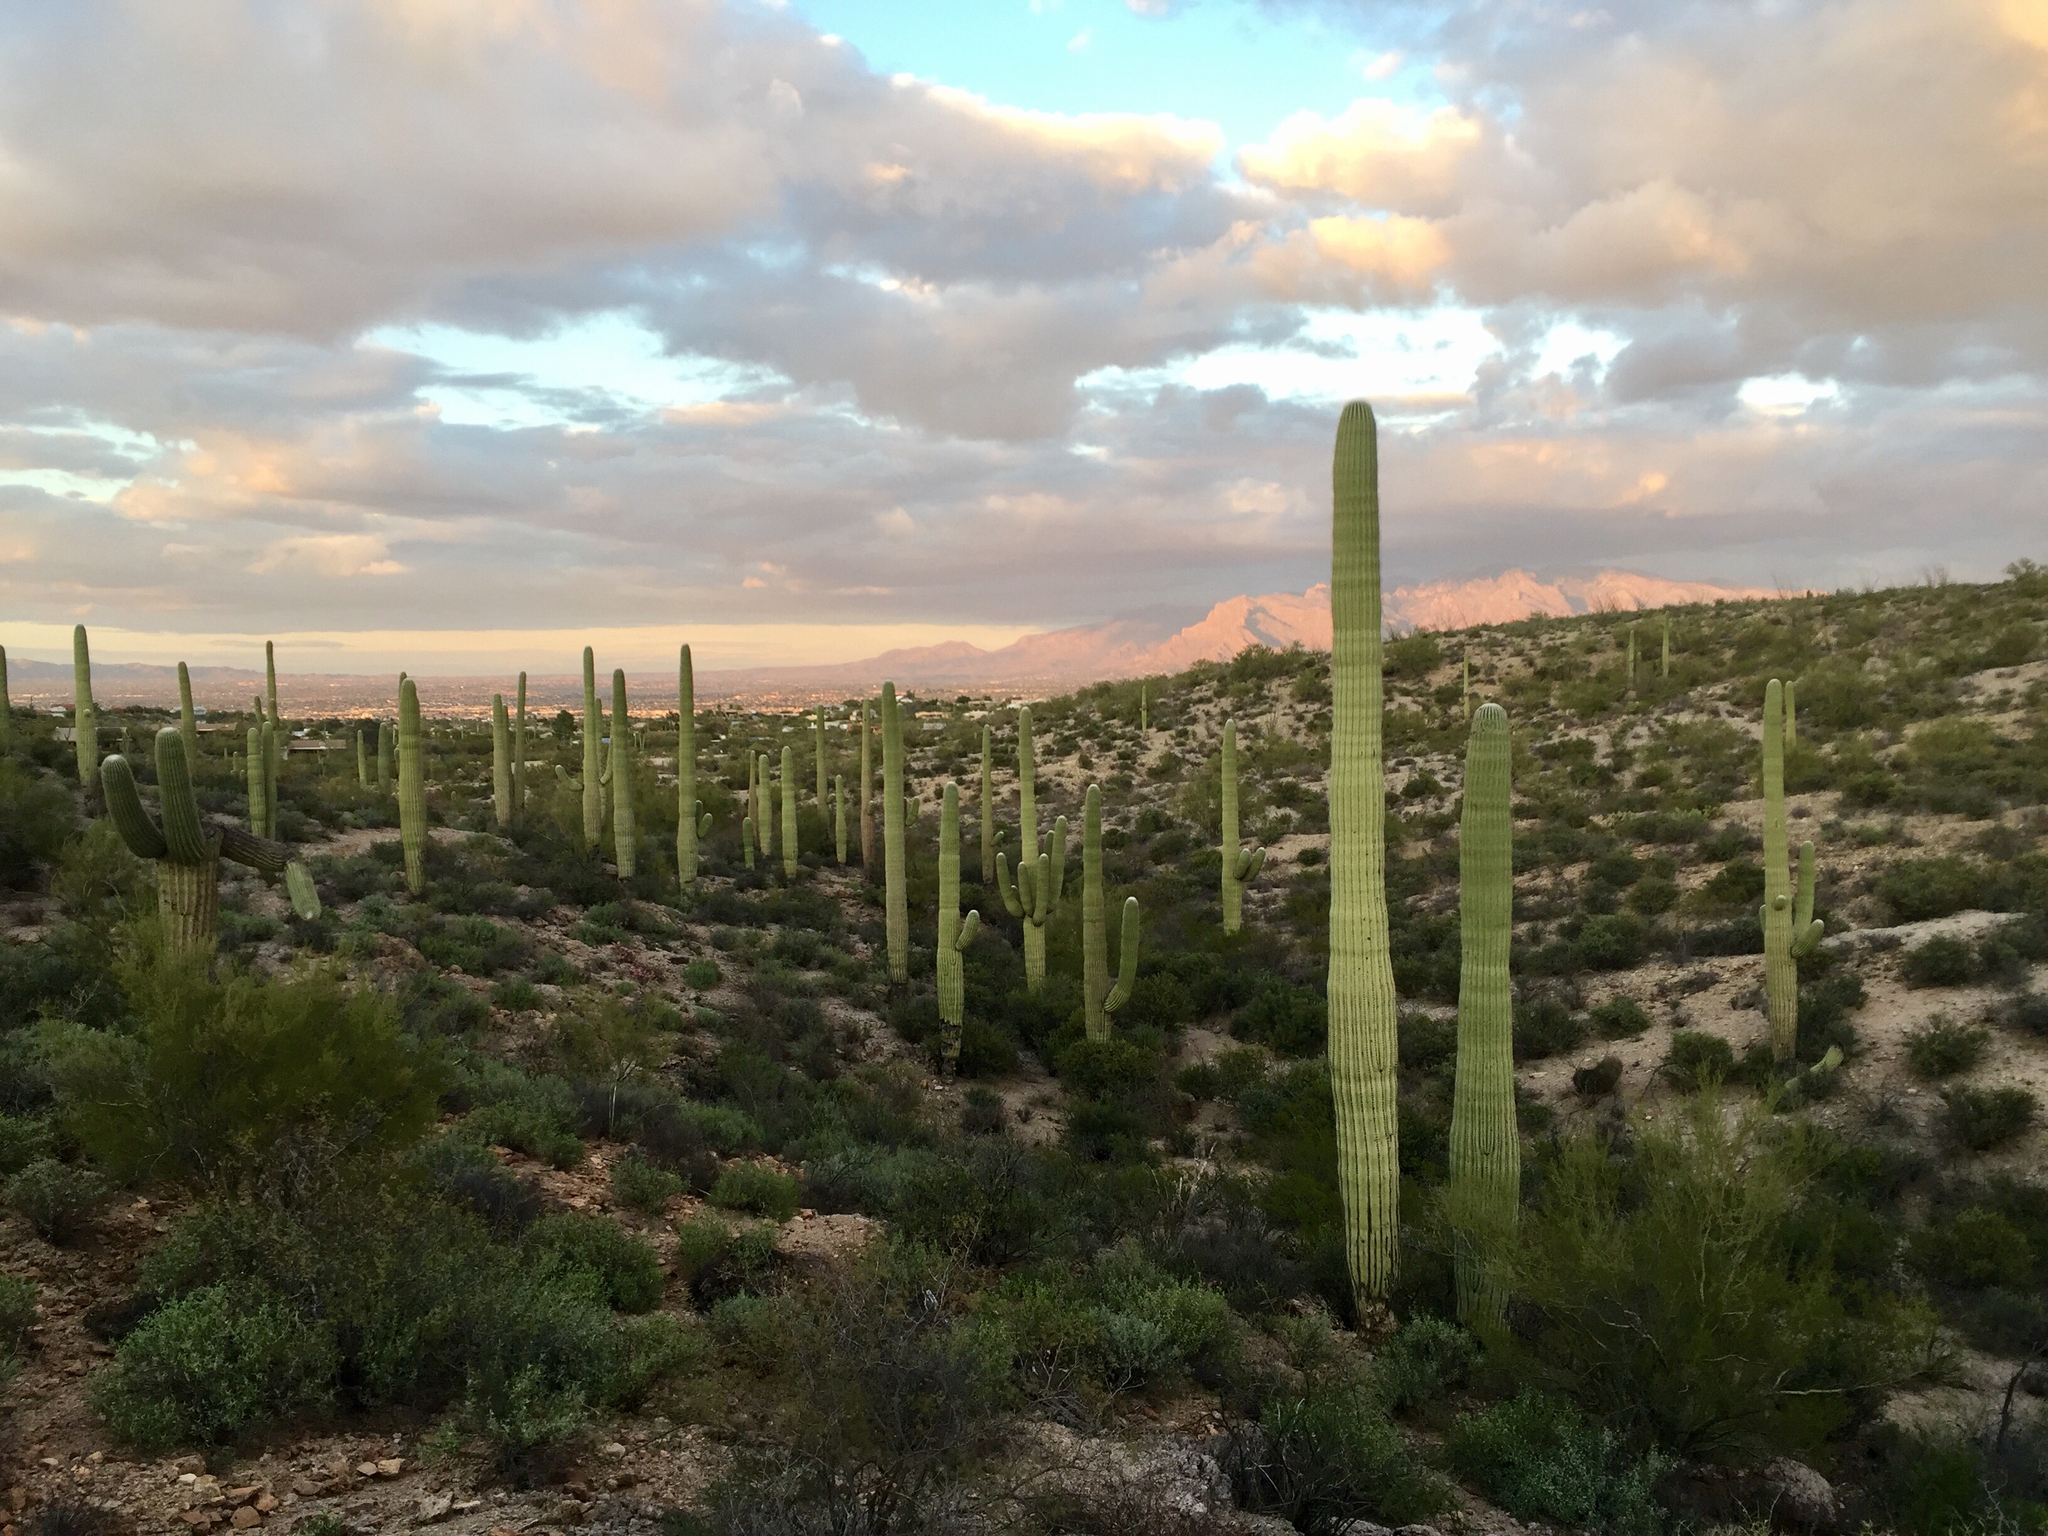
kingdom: Plantae
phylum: Tracheophyta
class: Magnoliopsida
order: Caryophyllales
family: Cactaceae
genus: Carnegiea
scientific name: Carnegiea gigantea
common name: Saguaro
